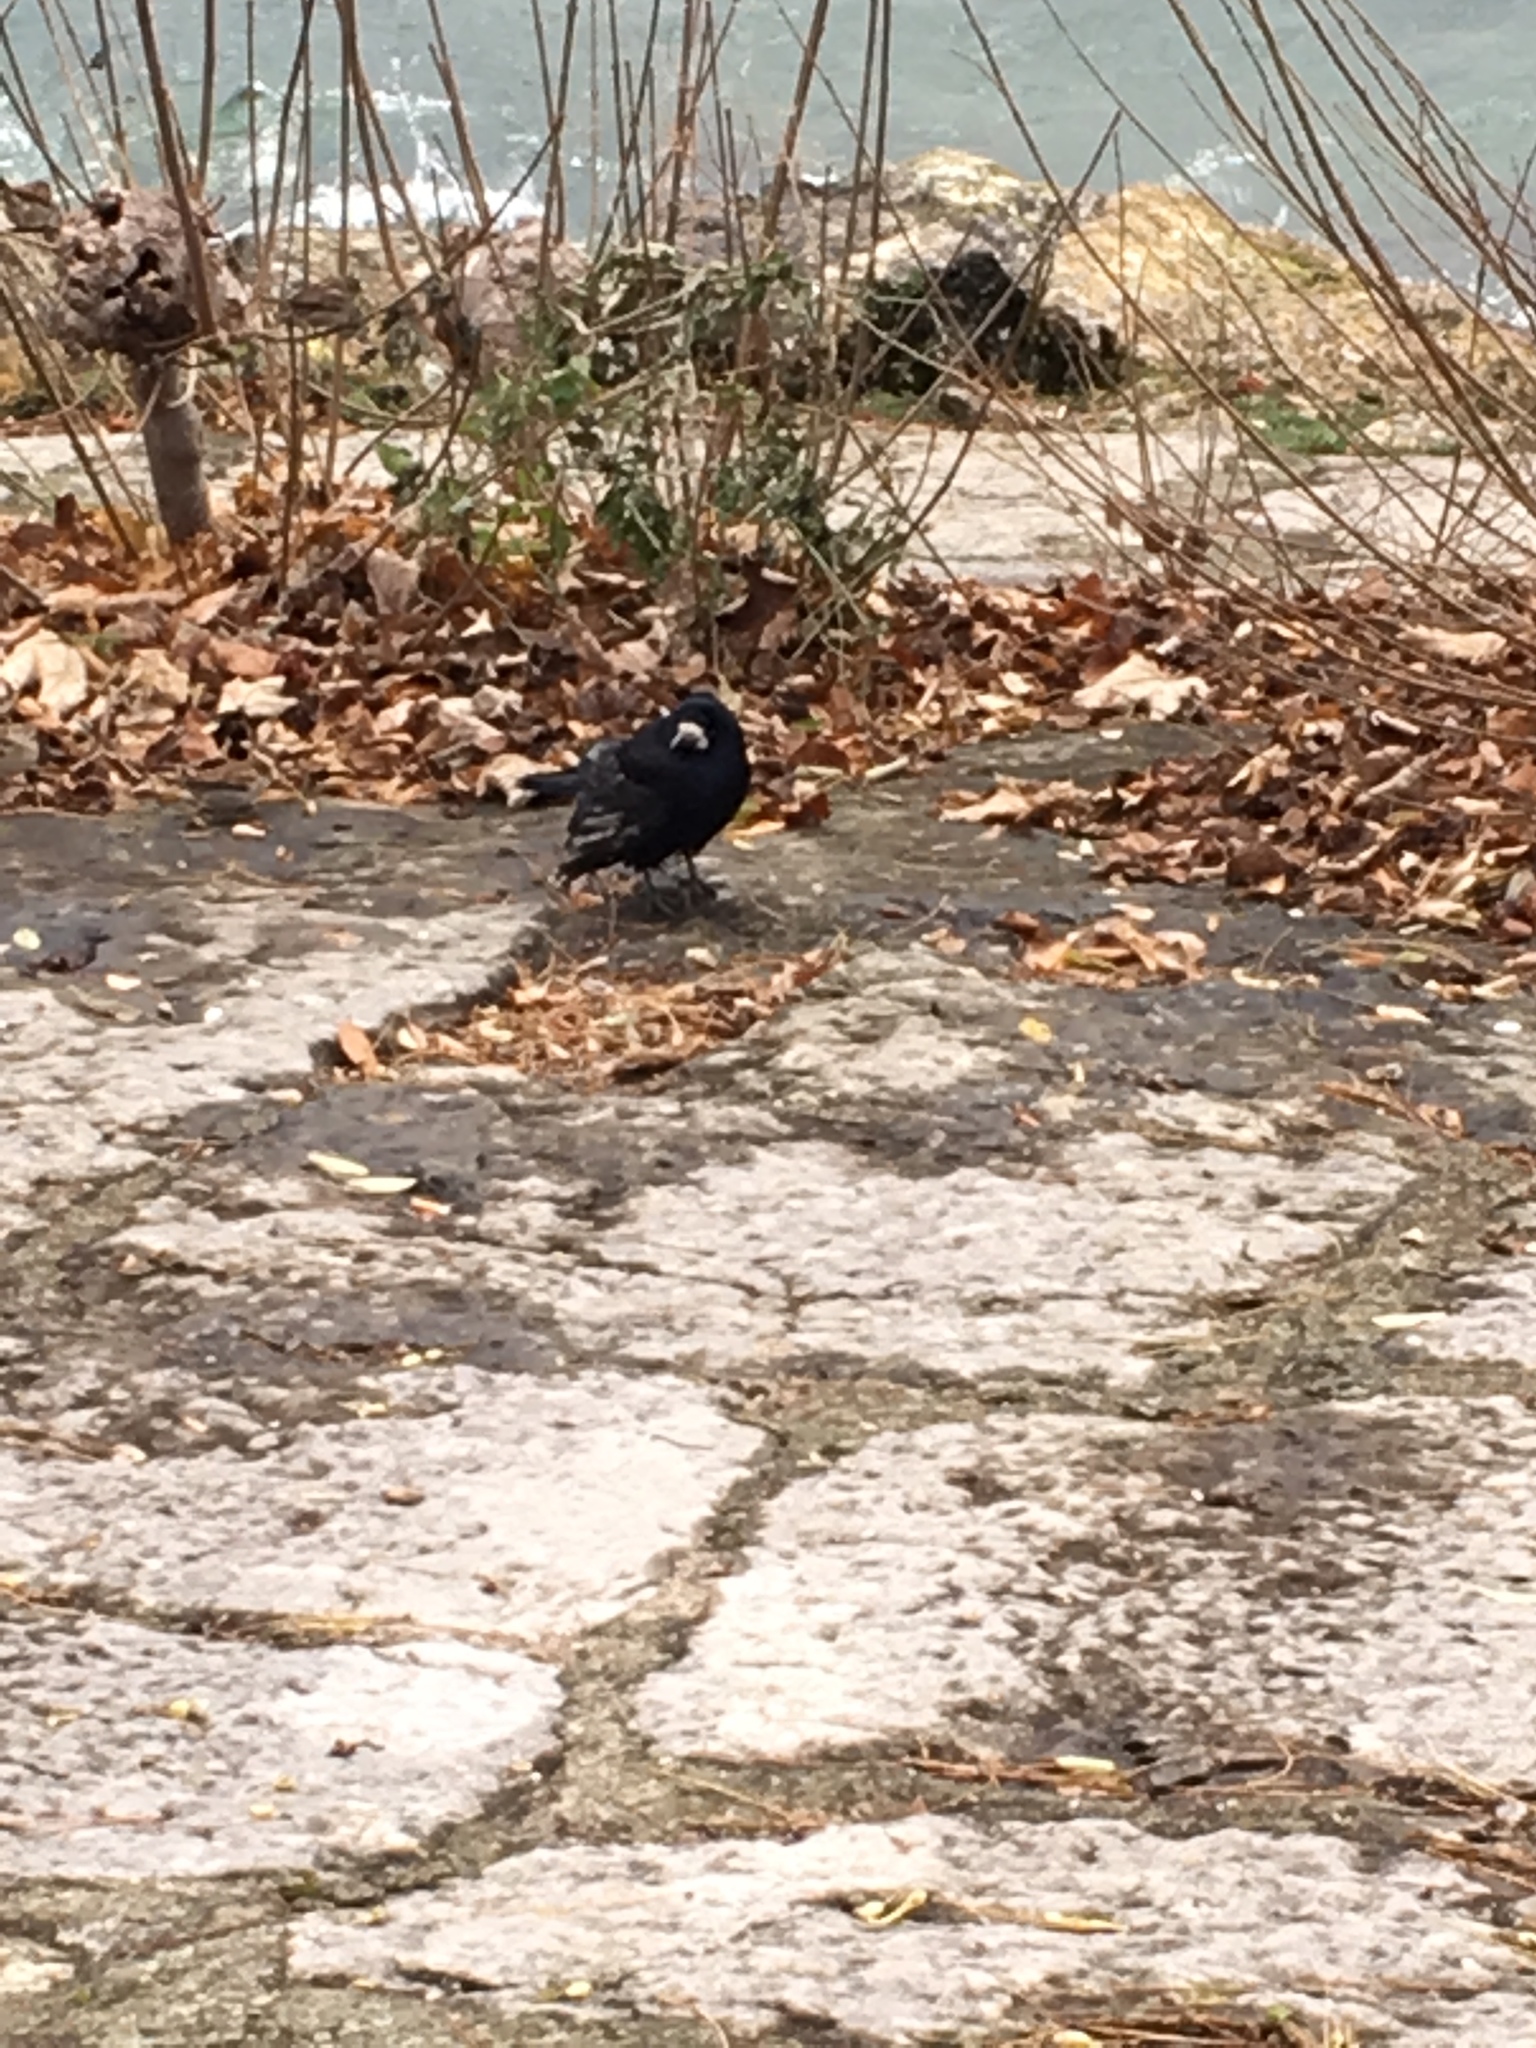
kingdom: Animalia
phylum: Chordata
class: Aves
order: Passeriformes
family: Corvidae
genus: Corvus
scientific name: Corvus frugilegus
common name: Rook
